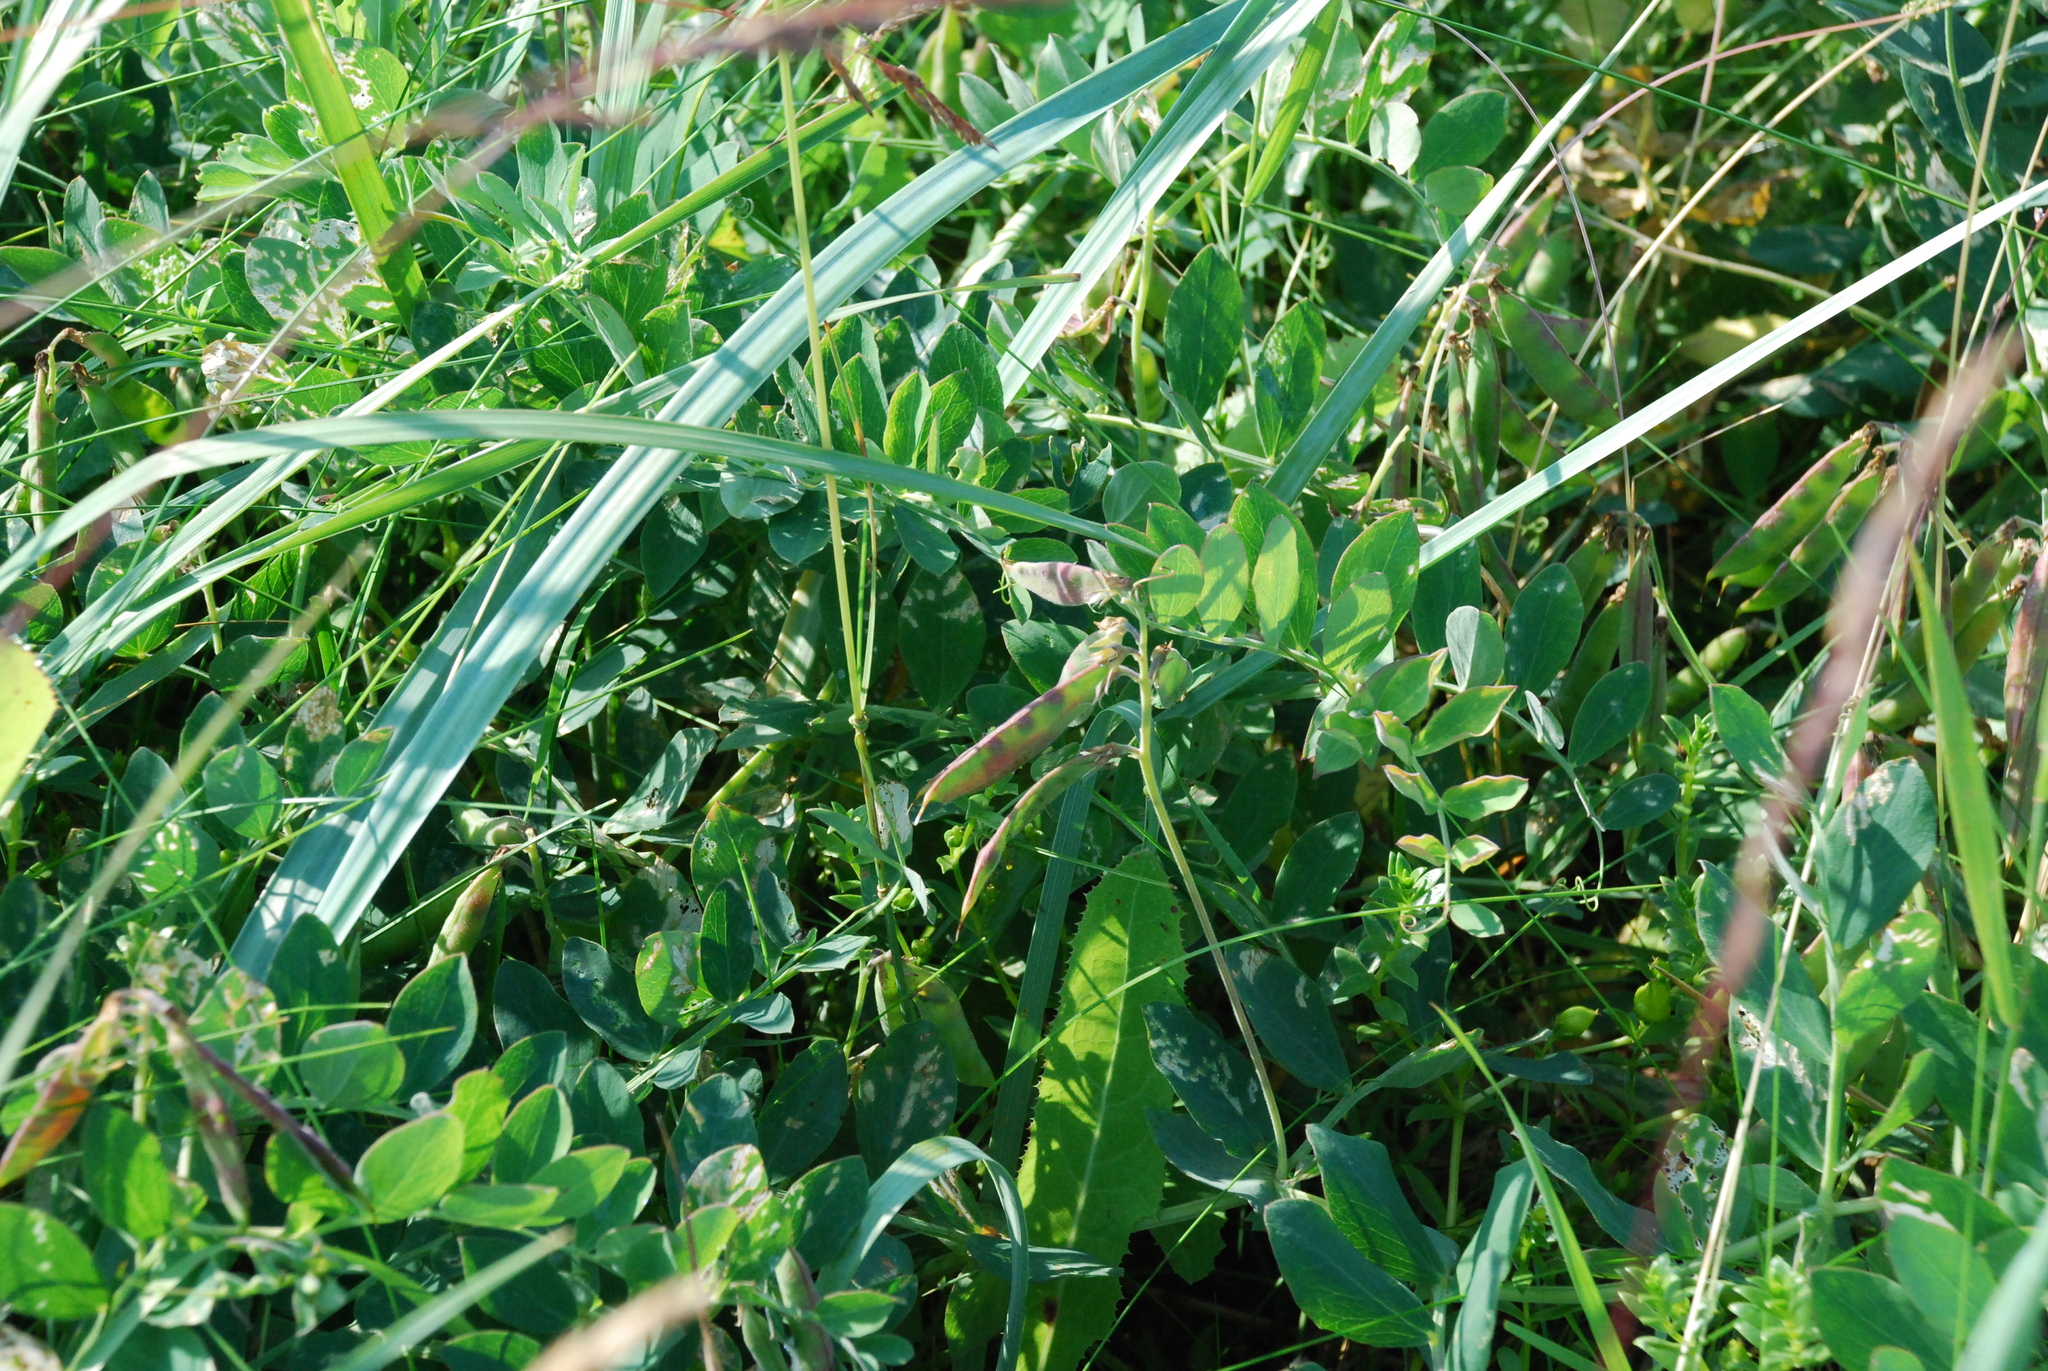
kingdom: Plantae
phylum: Tracheophyta
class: Magnoliopsida
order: Fabales
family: Fabaceae
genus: Lathyrus
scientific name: Lathyrus japonicus
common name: Sea pea
